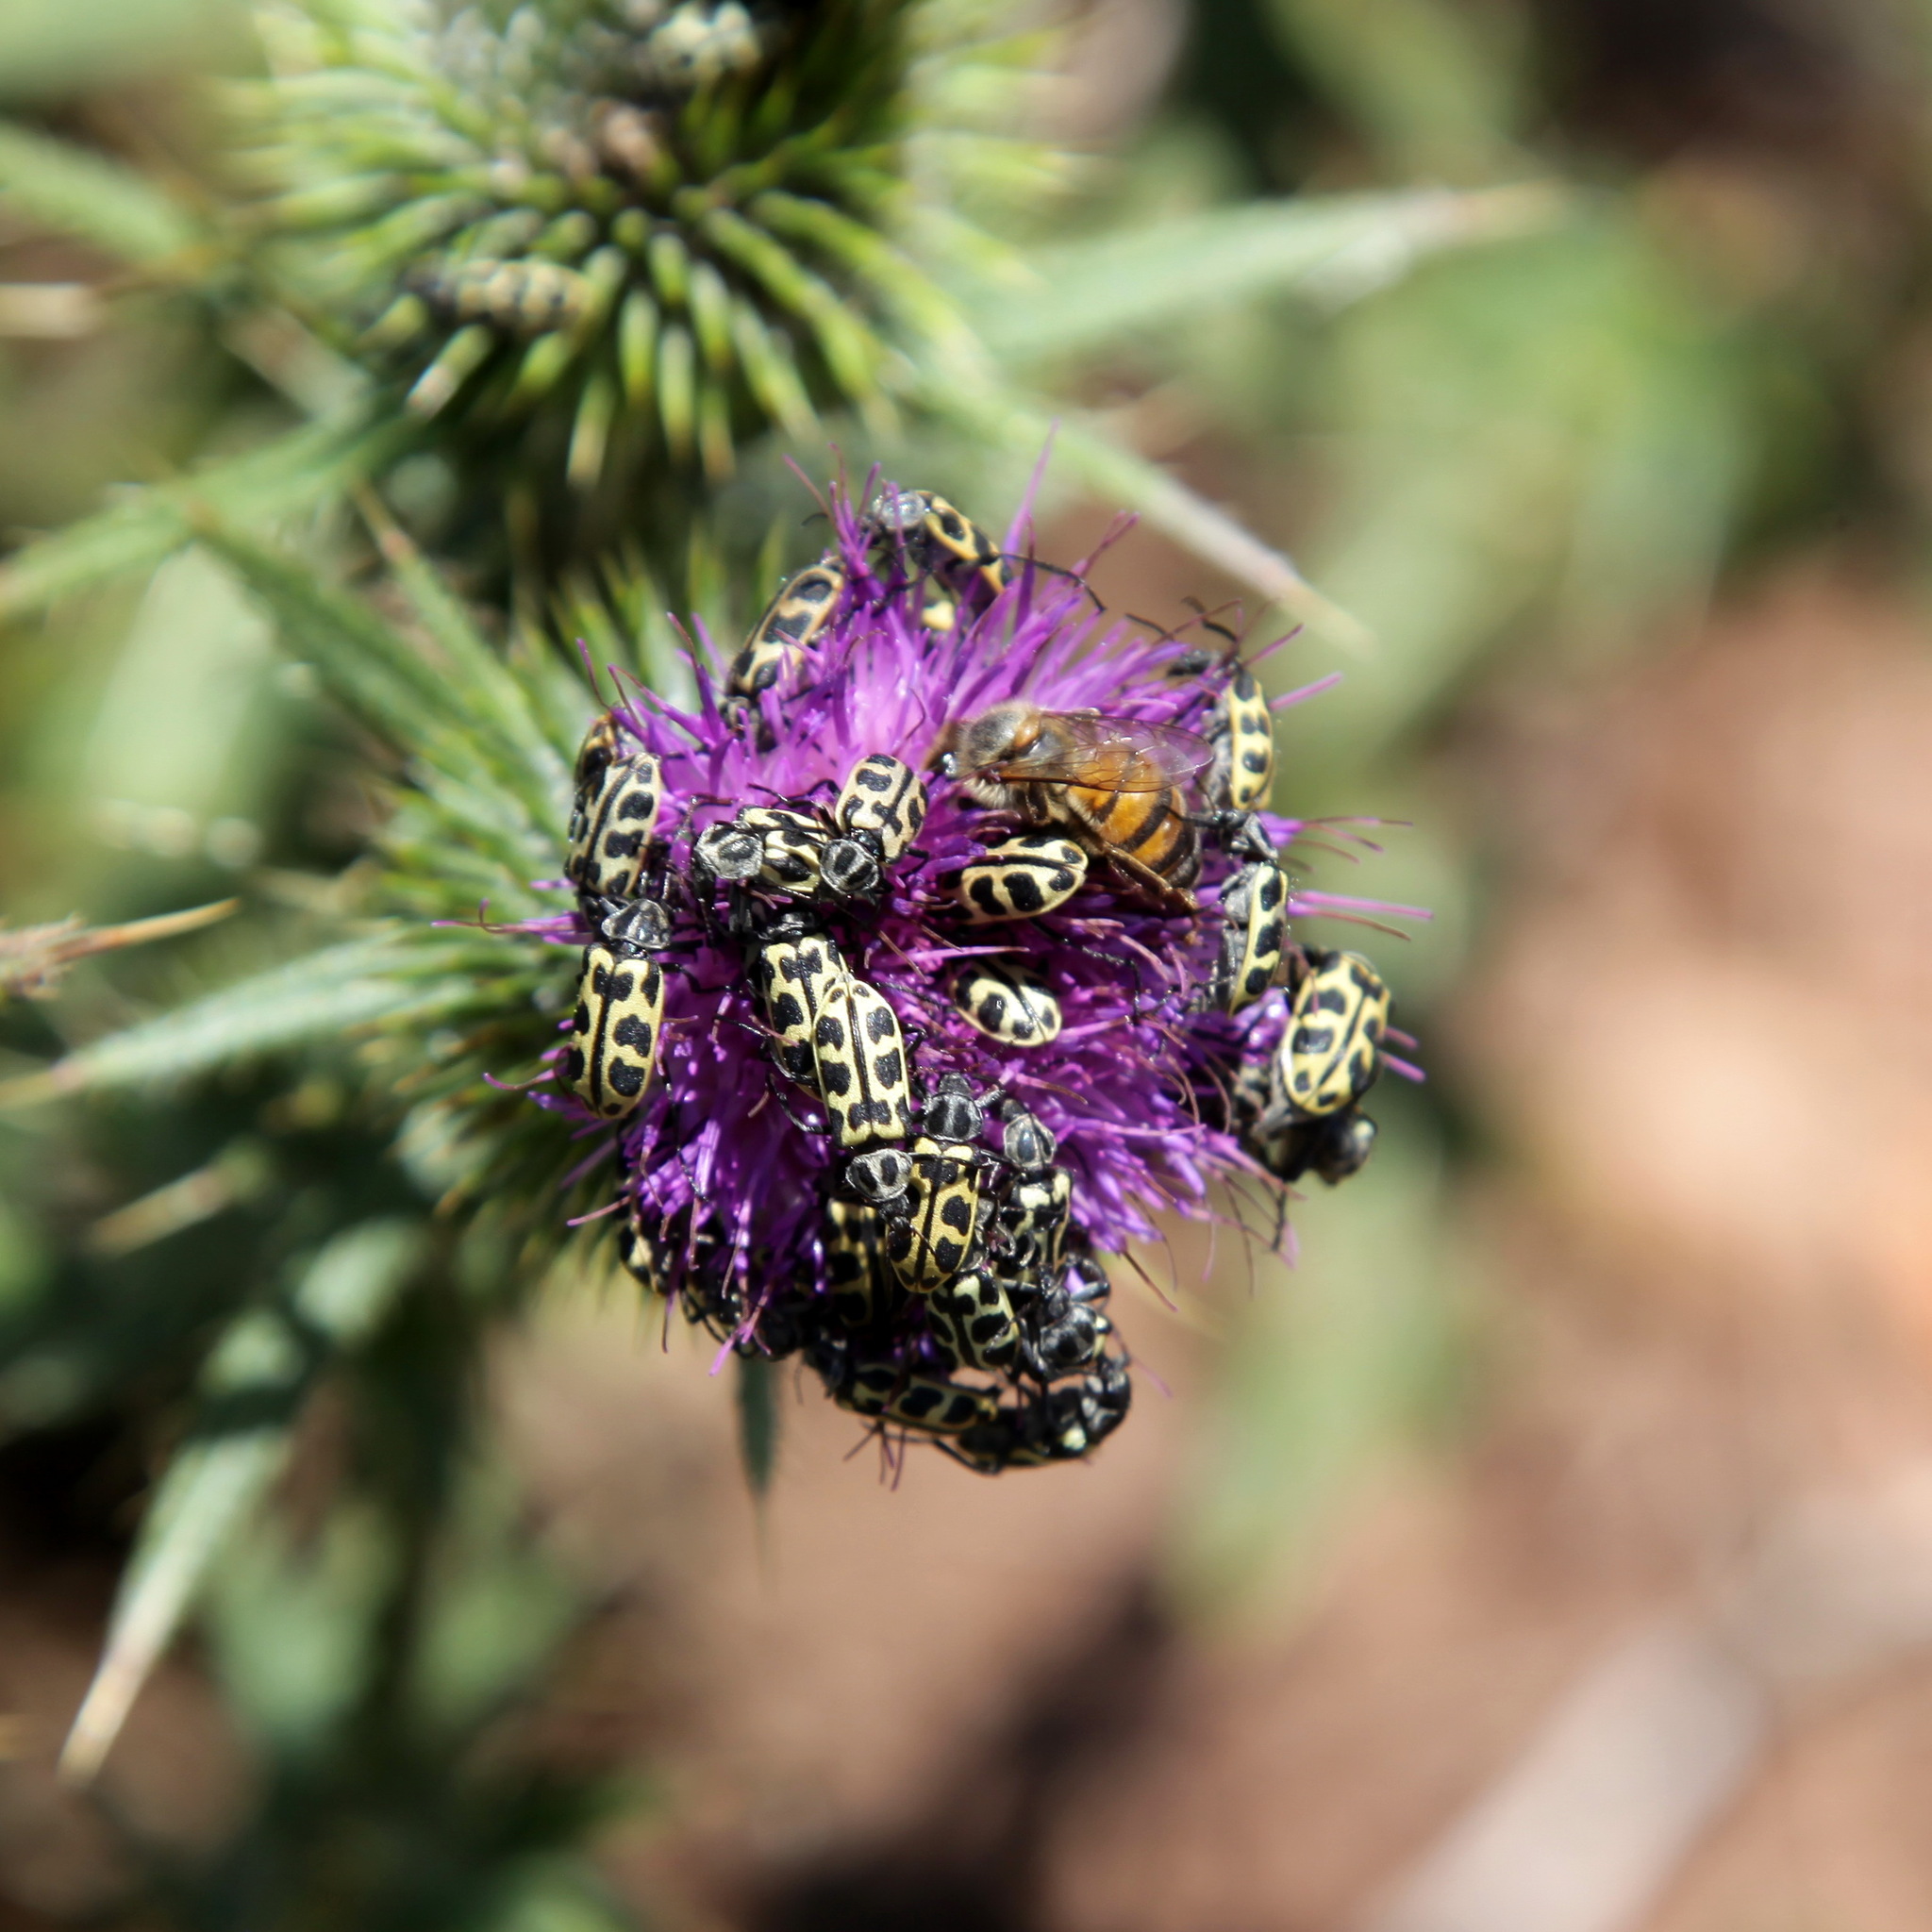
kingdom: Animalia
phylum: Arthropoda
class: Insecta
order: Coleoptera
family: Melyridae
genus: Astylus
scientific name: Astylus atromaculatus
